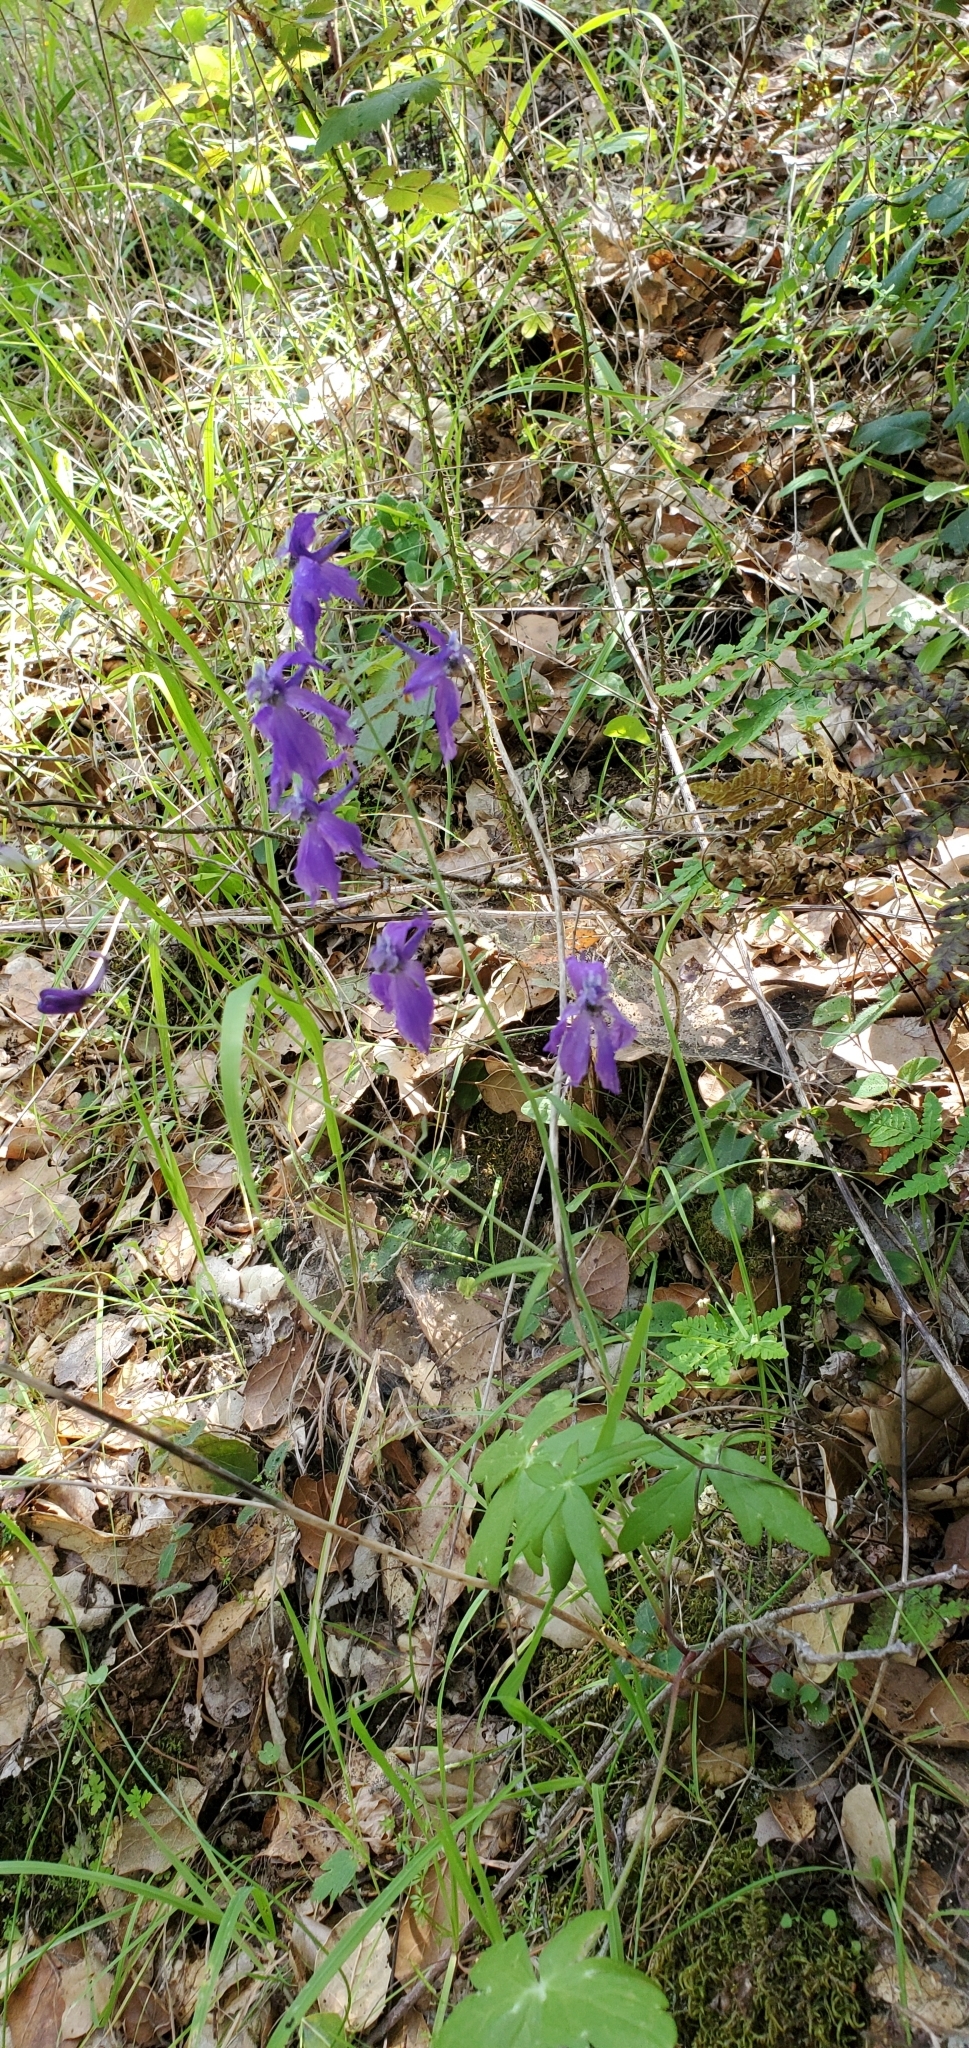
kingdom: Plantae
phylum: Tracheophyta
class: Magnoliopsida
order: Ranunculales
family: Ranunculaceae
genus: Delphinium
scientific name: Delphinium patens
